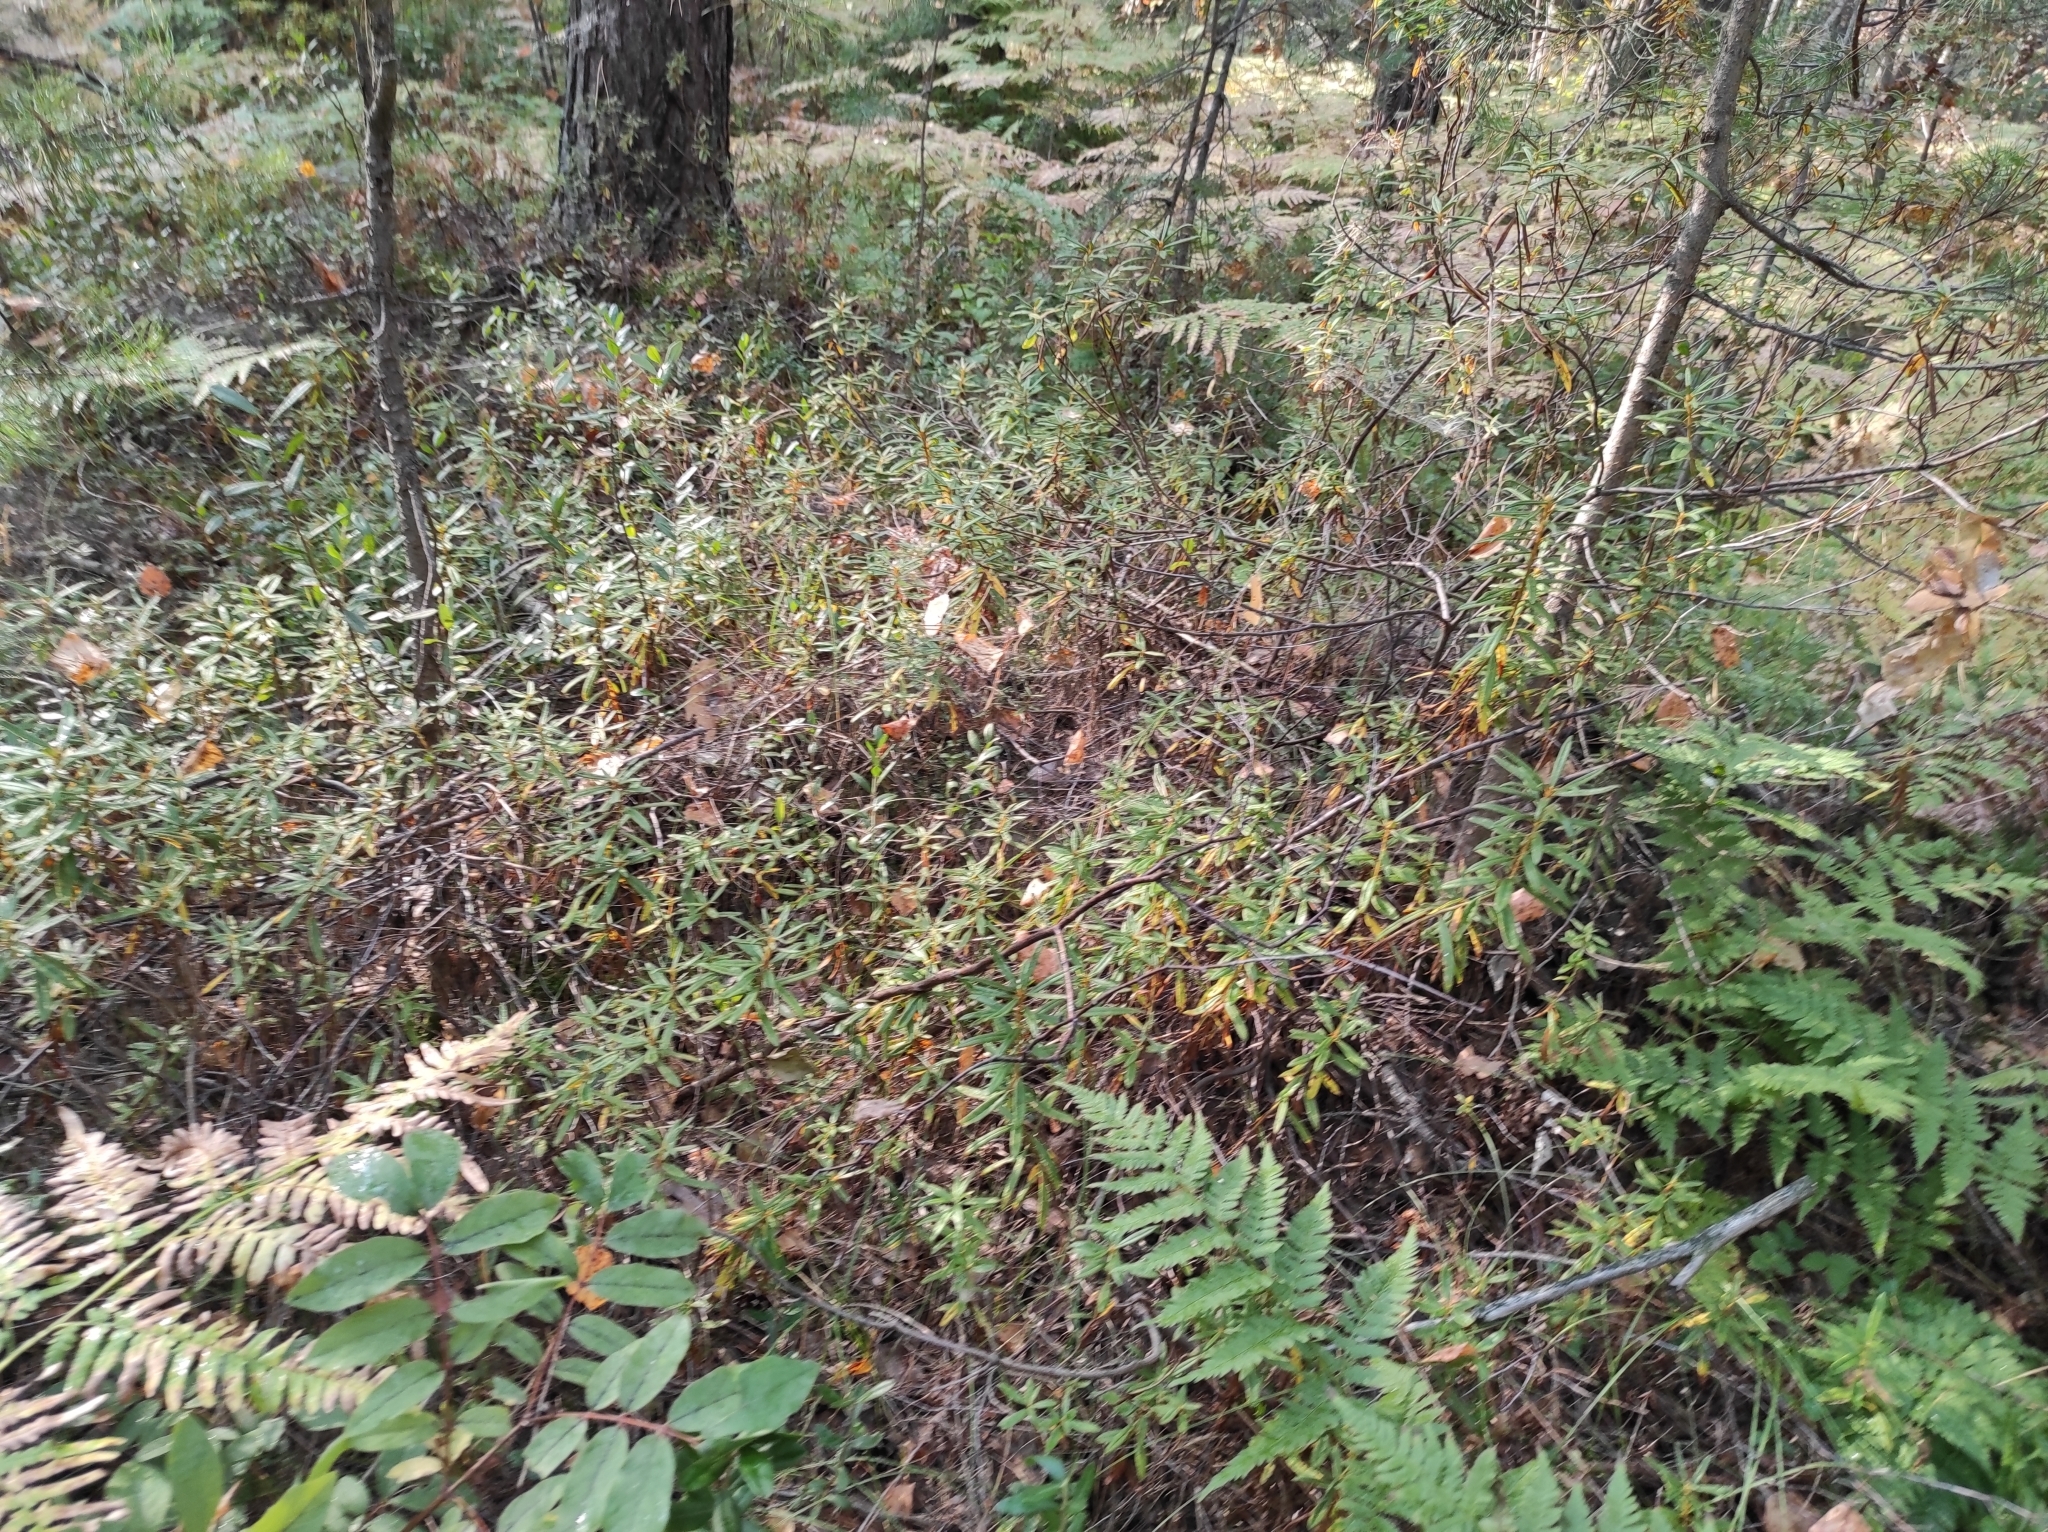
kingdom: Plantae
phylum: Tracheophyta
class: Magnoliopsida
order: Ericales
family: Ericaceae
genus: Rhododendron
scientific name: Rhododendron tomentosum
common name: Marsh labrador tea
